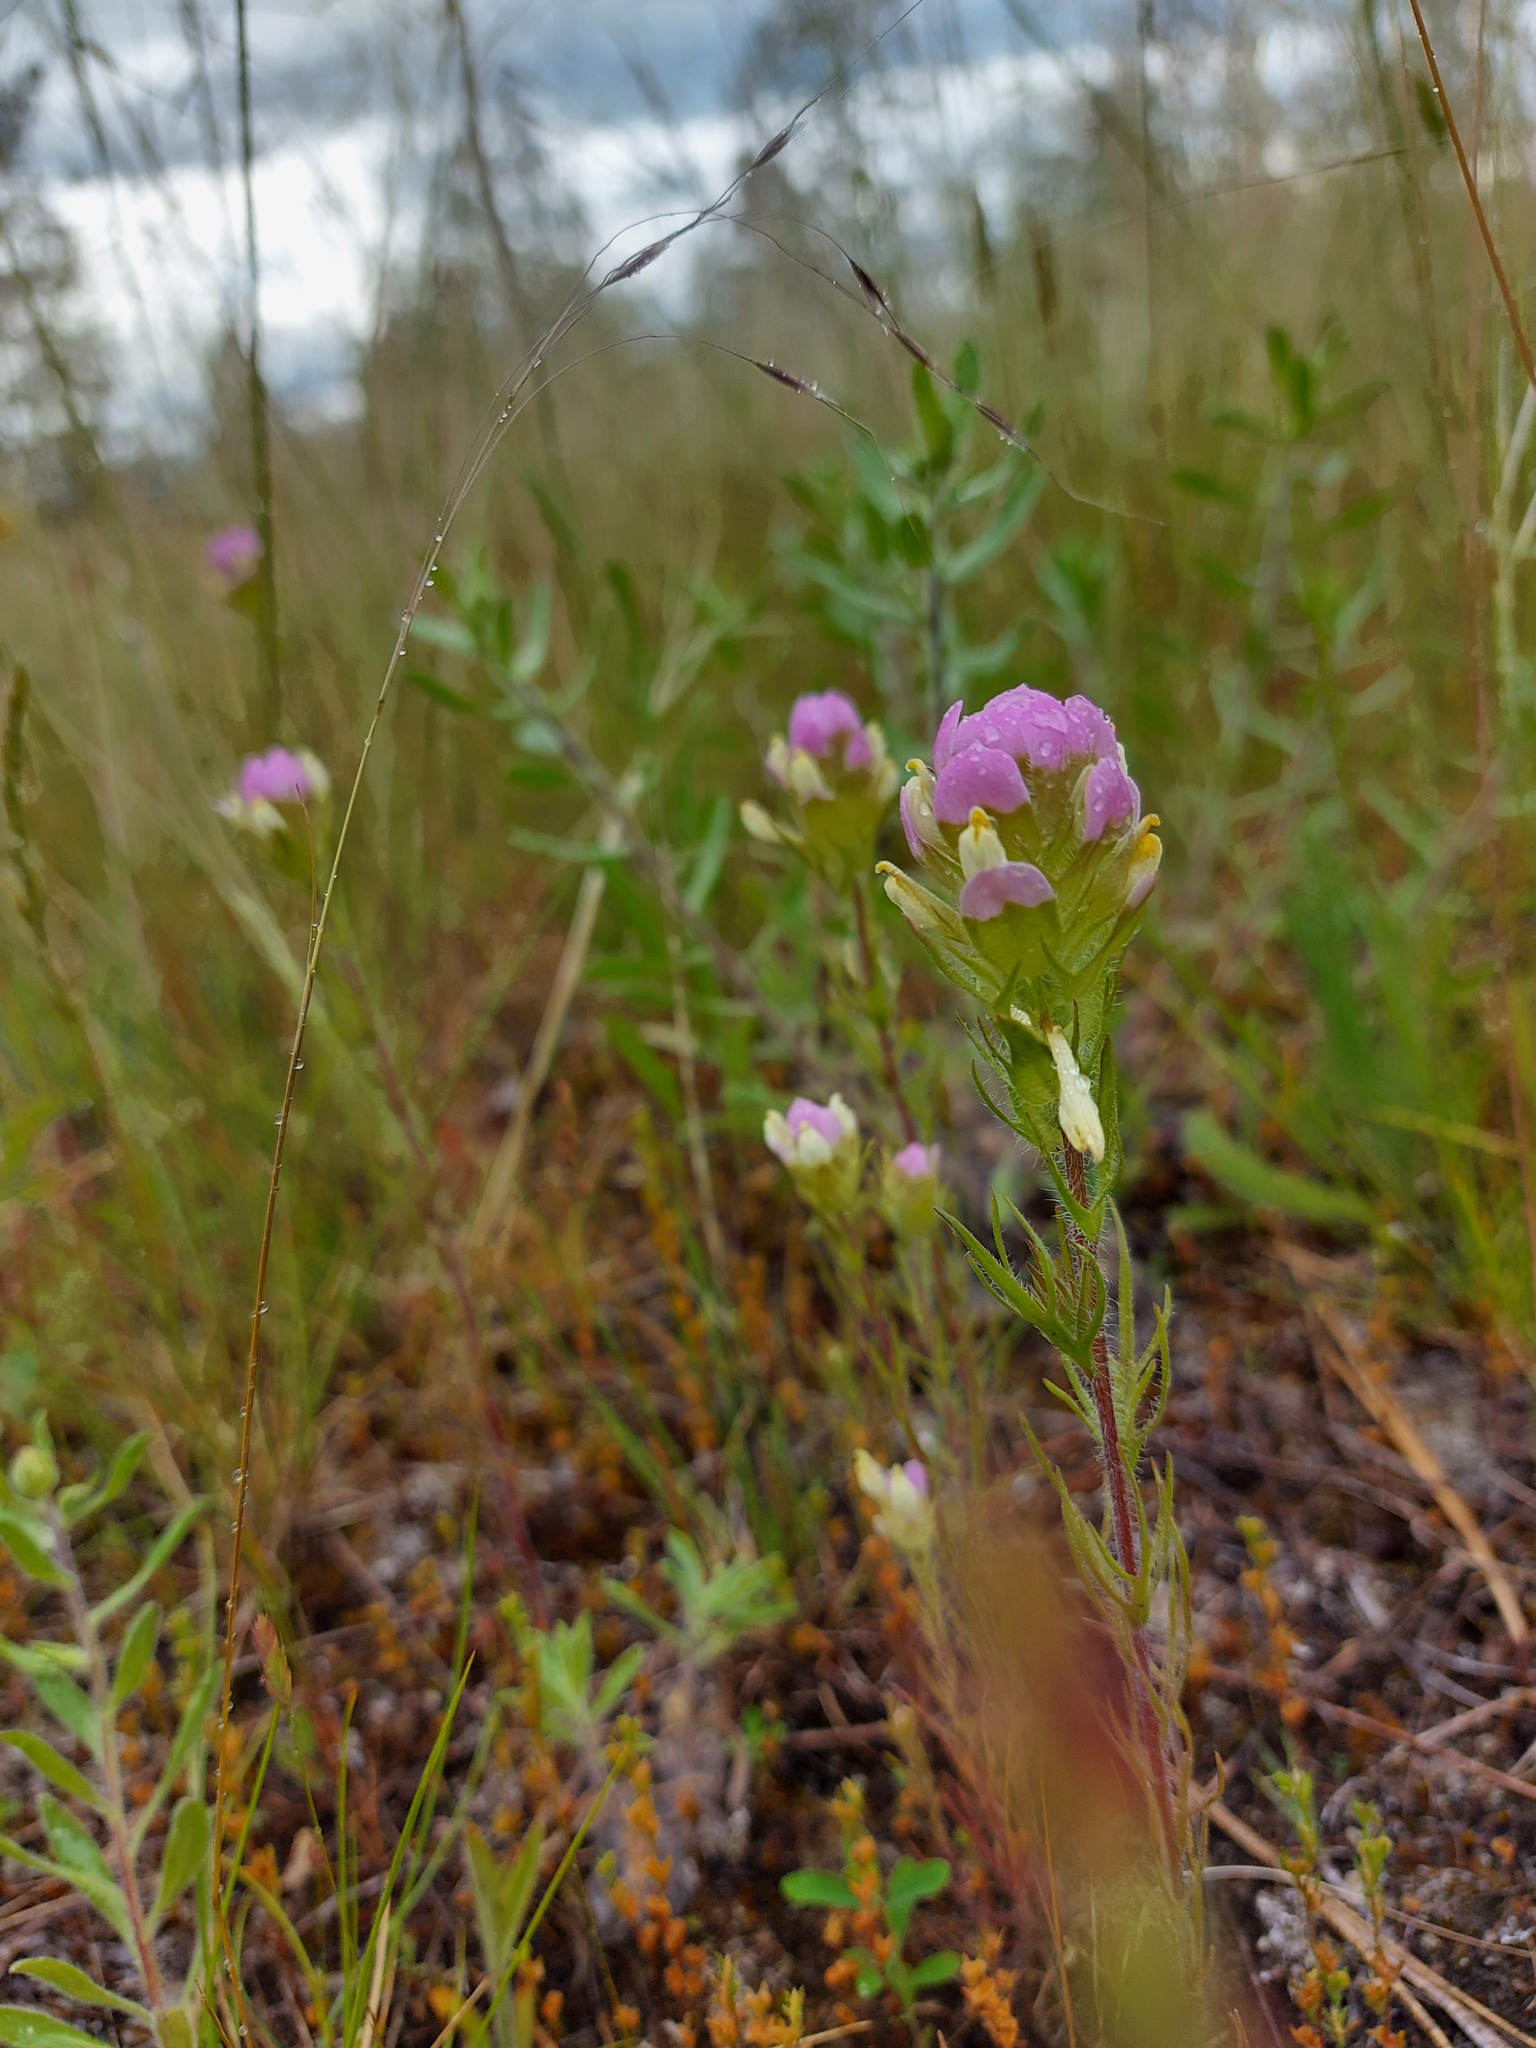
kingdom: Plantae
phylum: Tracheophyta
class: Magnoliopsida
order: Lamiales
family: Orobanchaceae
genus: Orthocarpus
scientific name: Orthocarpus tenuifolius
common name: Thin-leaved owl's-clover
